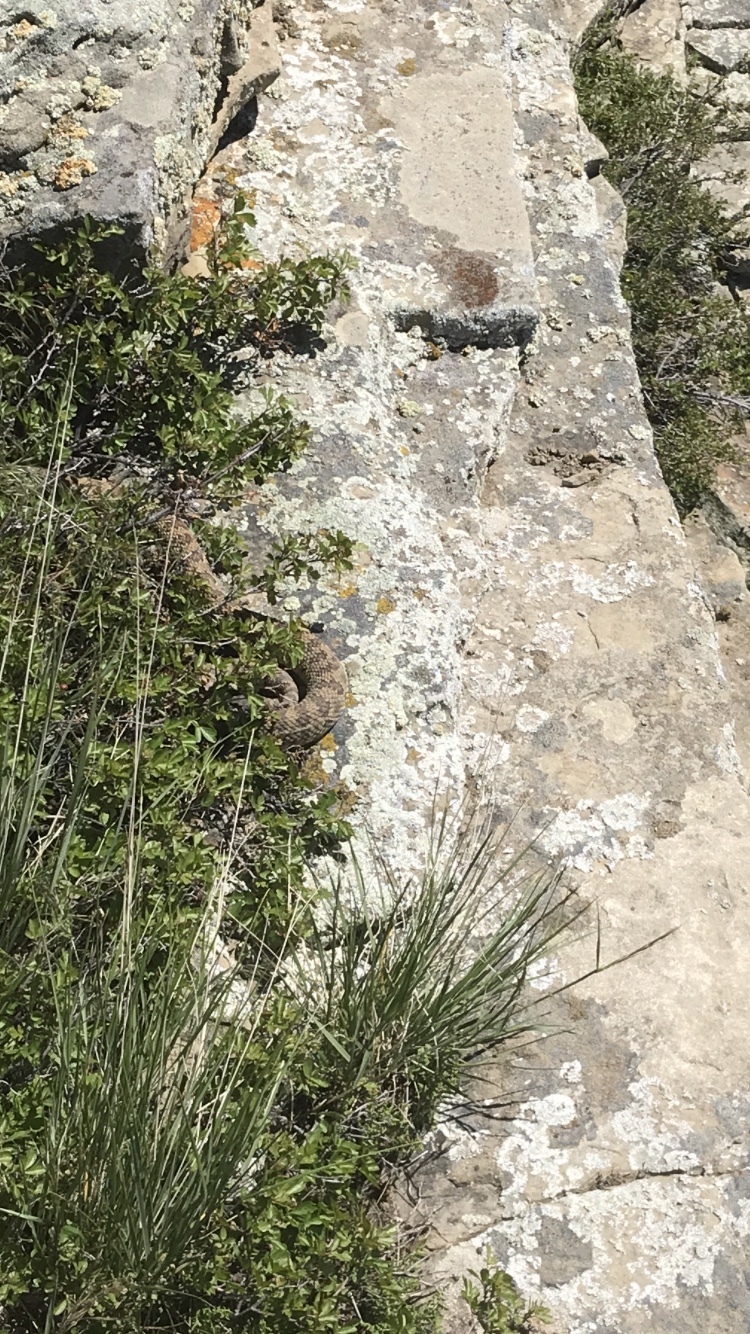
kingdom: Animalia
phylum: Chordata
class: Squamata
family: Viperidae
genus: Crotalus
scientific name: Crotalus viridis
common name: Prairie rattlesnake
